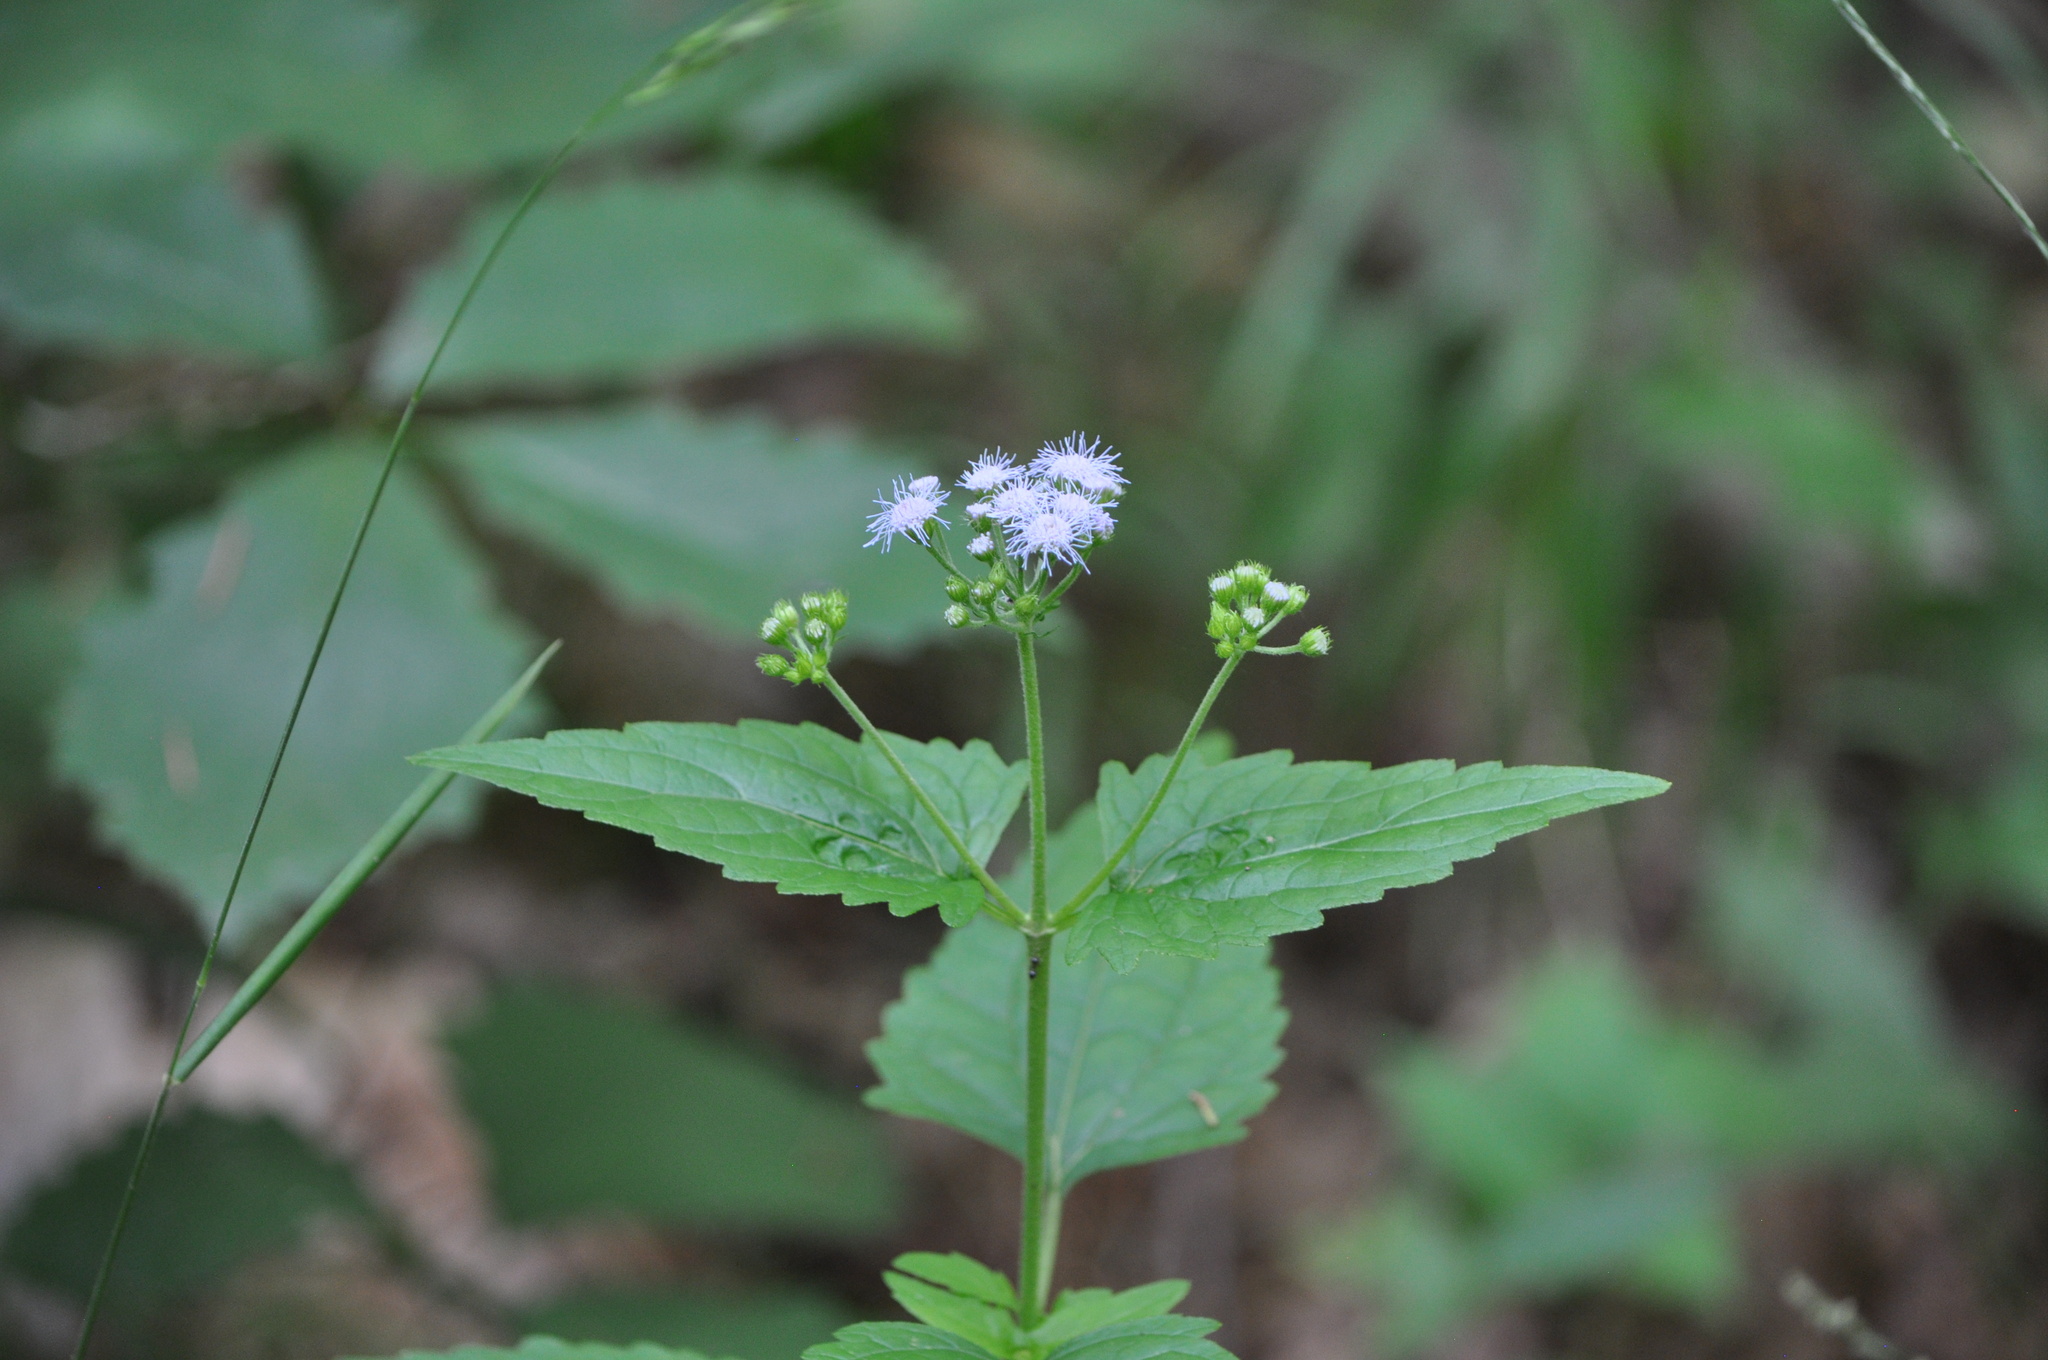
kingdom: Plantae
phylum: Tracheophyta
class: Magnoliopsida
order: Asterales
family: Asteraceae
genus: Conoclinium
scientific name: Conoclinium coelestinum
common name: Blue mistflower
